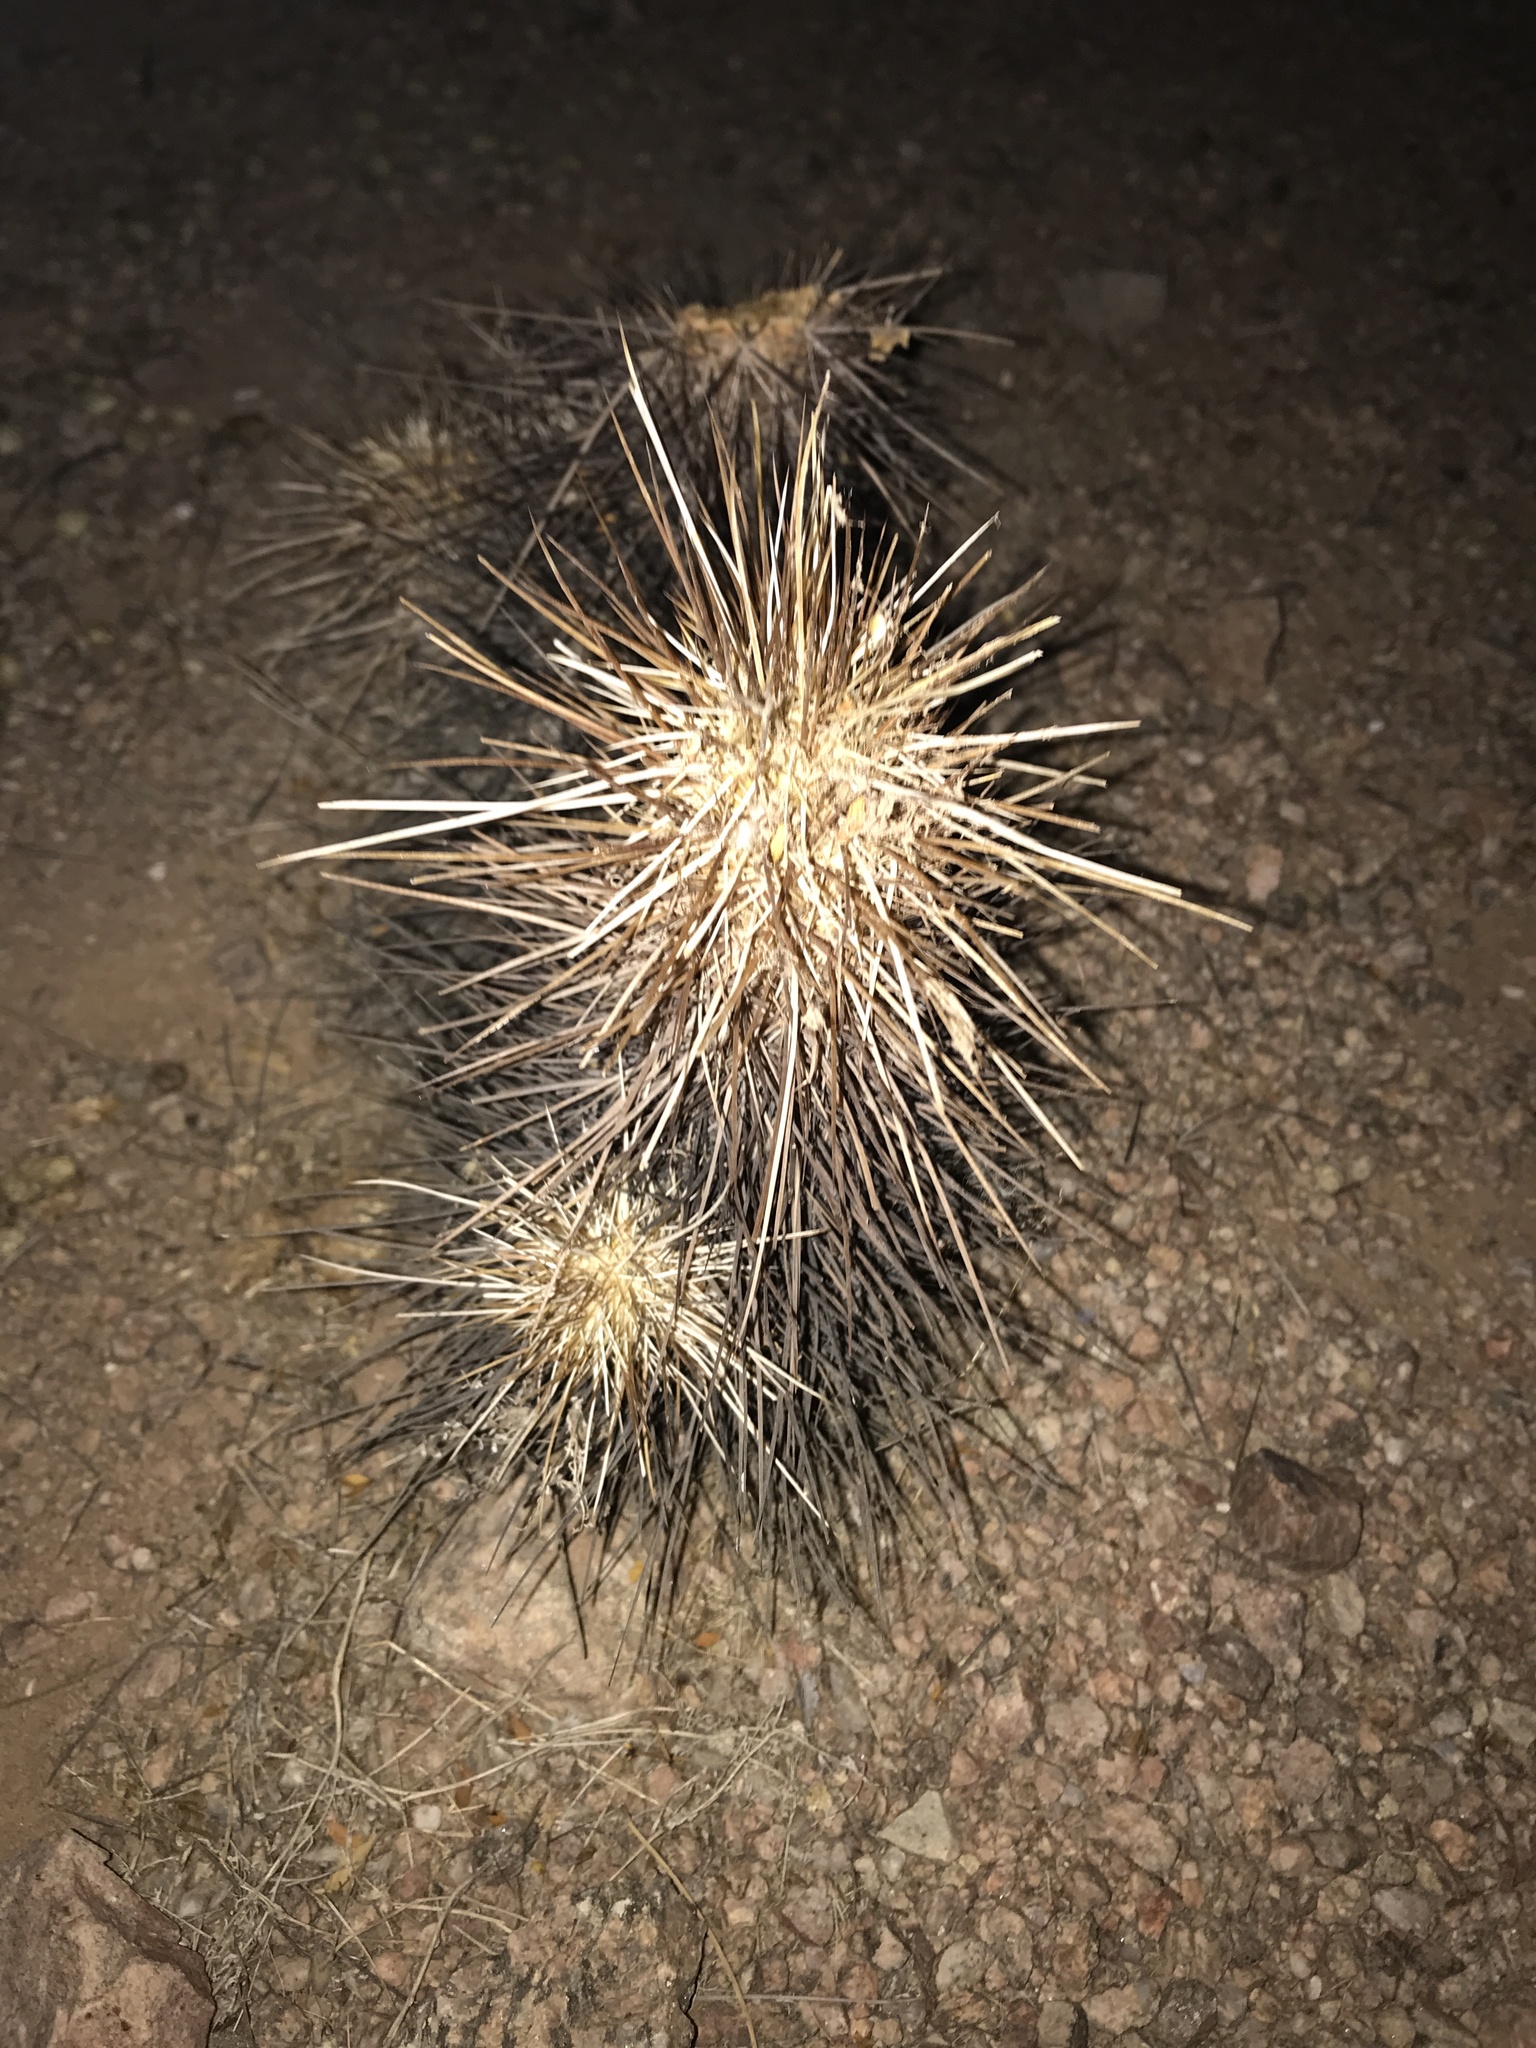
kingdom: Plantae
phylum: Tracheophyta
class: Magnoliopsida
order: Caryophyllales
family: Cactaceae
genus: Echinocereus
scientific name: Echinocereus engelmannii
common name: Engelmann's hedgehog cactus
